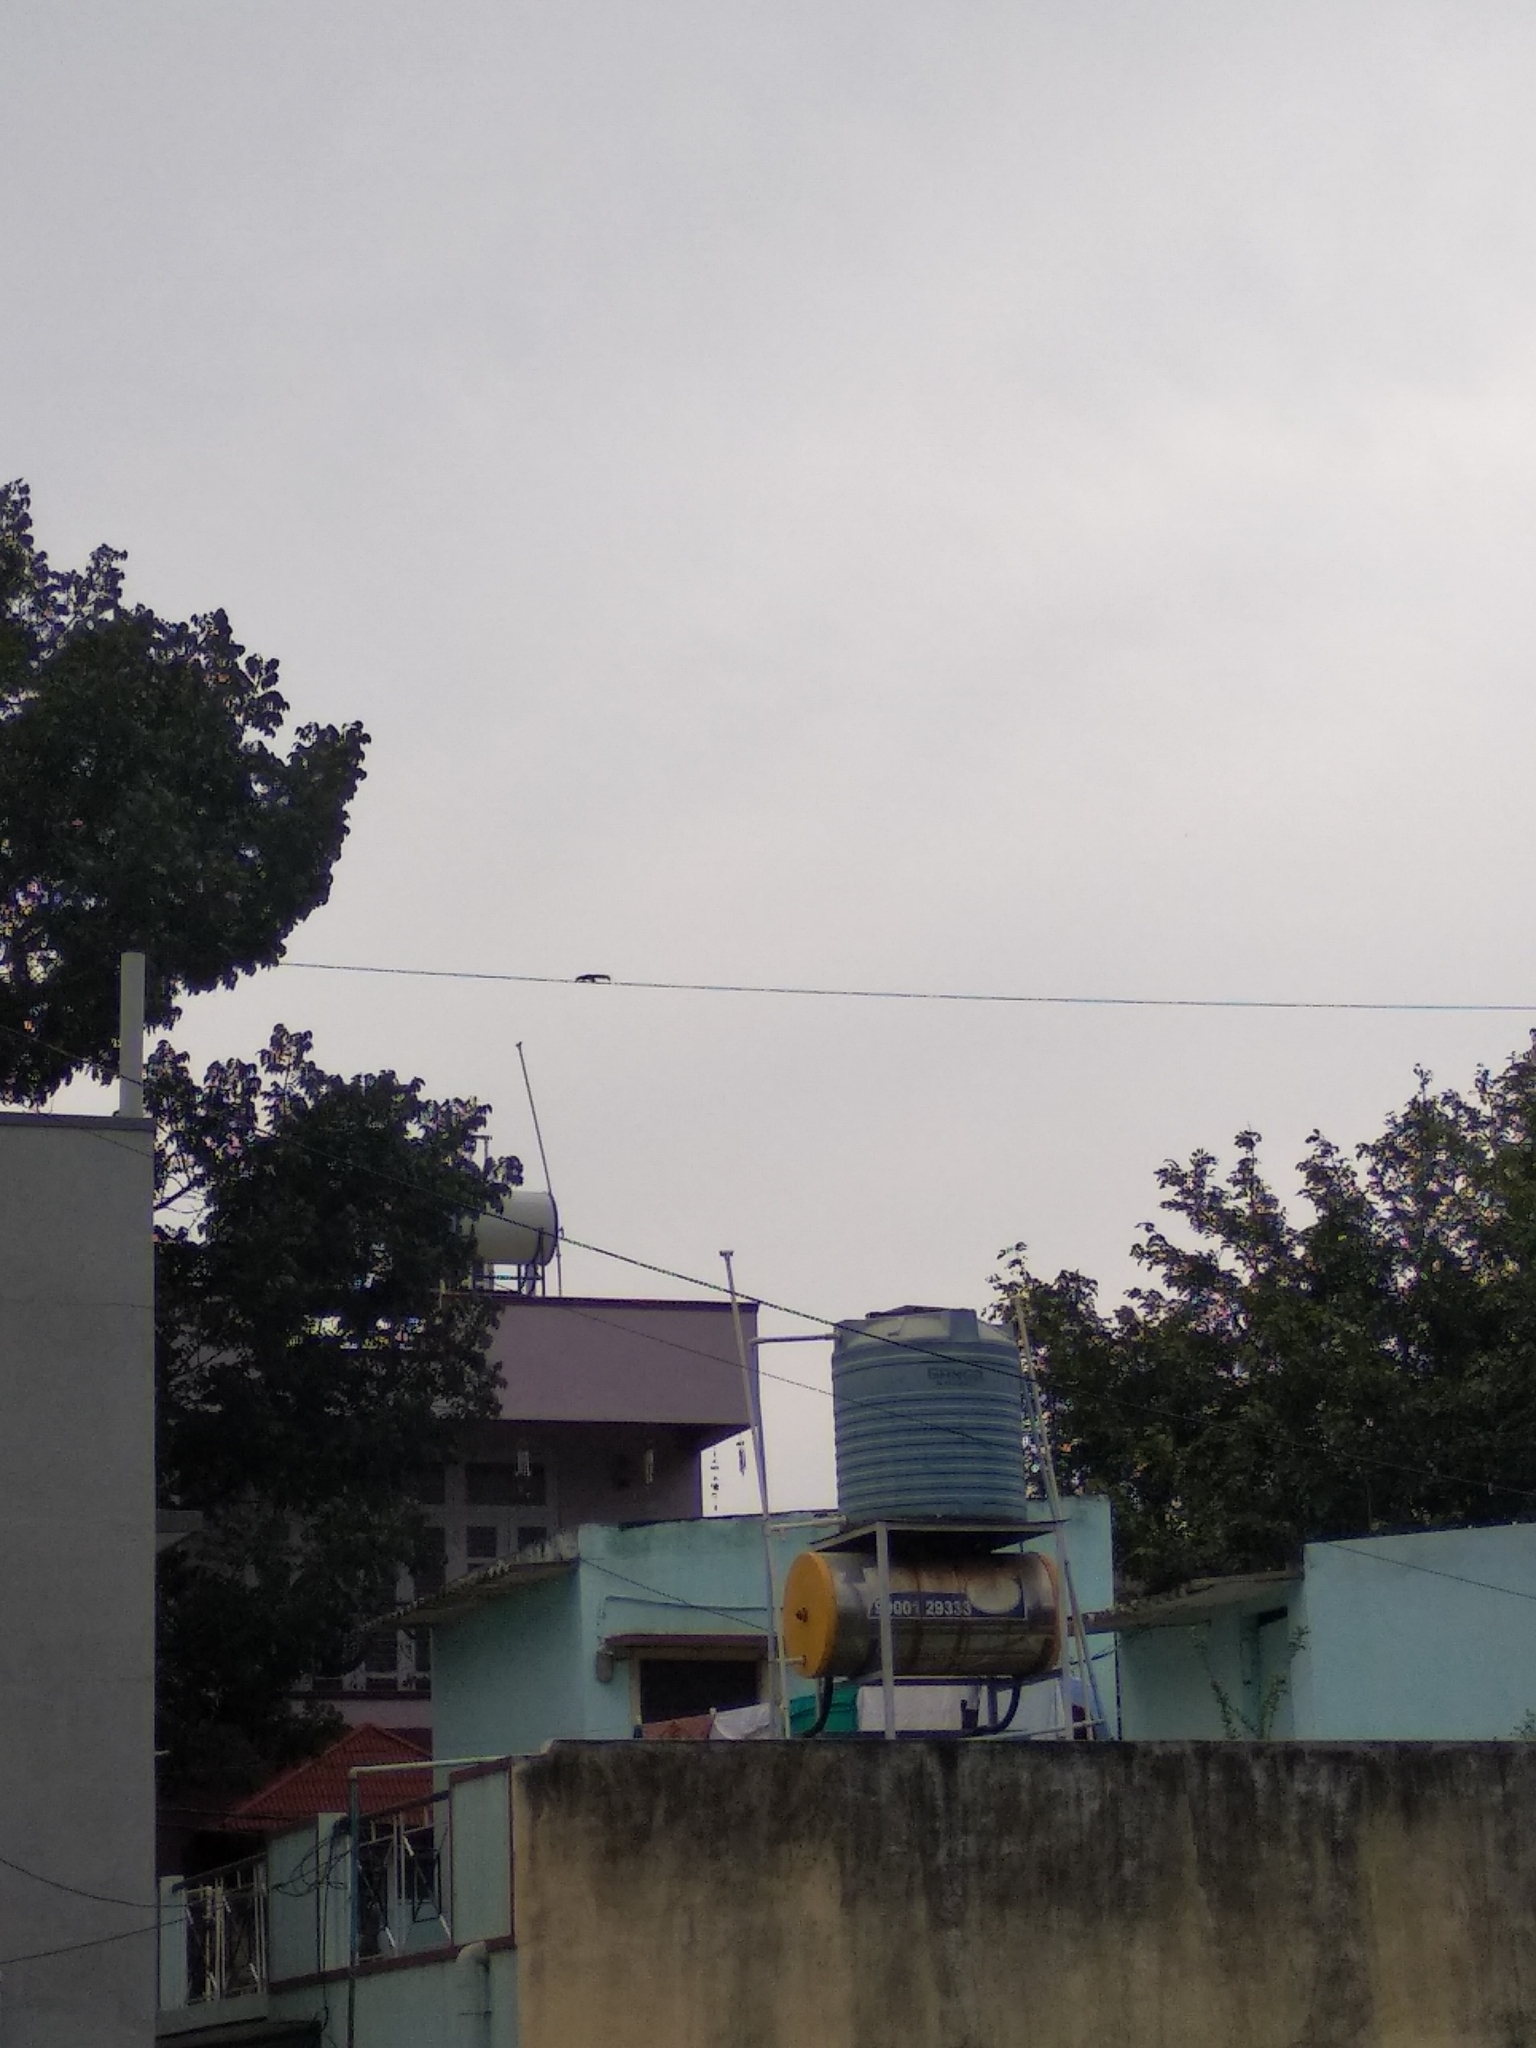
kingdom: Animalia
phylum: Chordata
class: Mammalia
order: Rodentia
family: Sciuridae
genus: Funambulus
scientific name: Funambulus palmarum
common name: Indian palm squirrel
